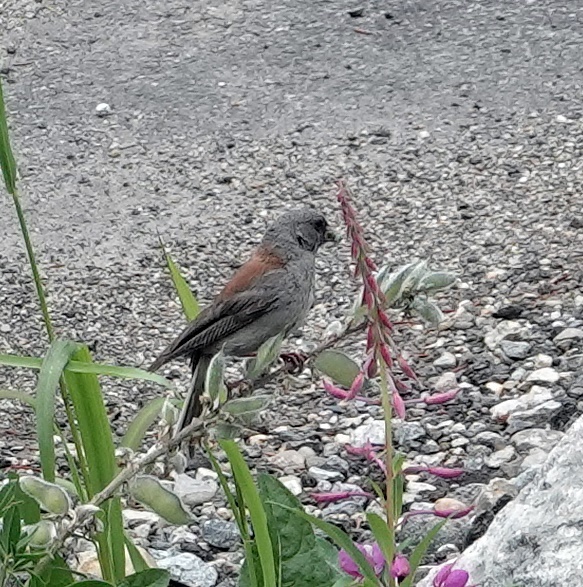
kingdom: Animalia
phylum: Chordata
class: Aves
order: Passeriformes
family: Passerellidae
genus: Junco
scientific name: Junco hyemalis
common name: Dark-eyed junco
